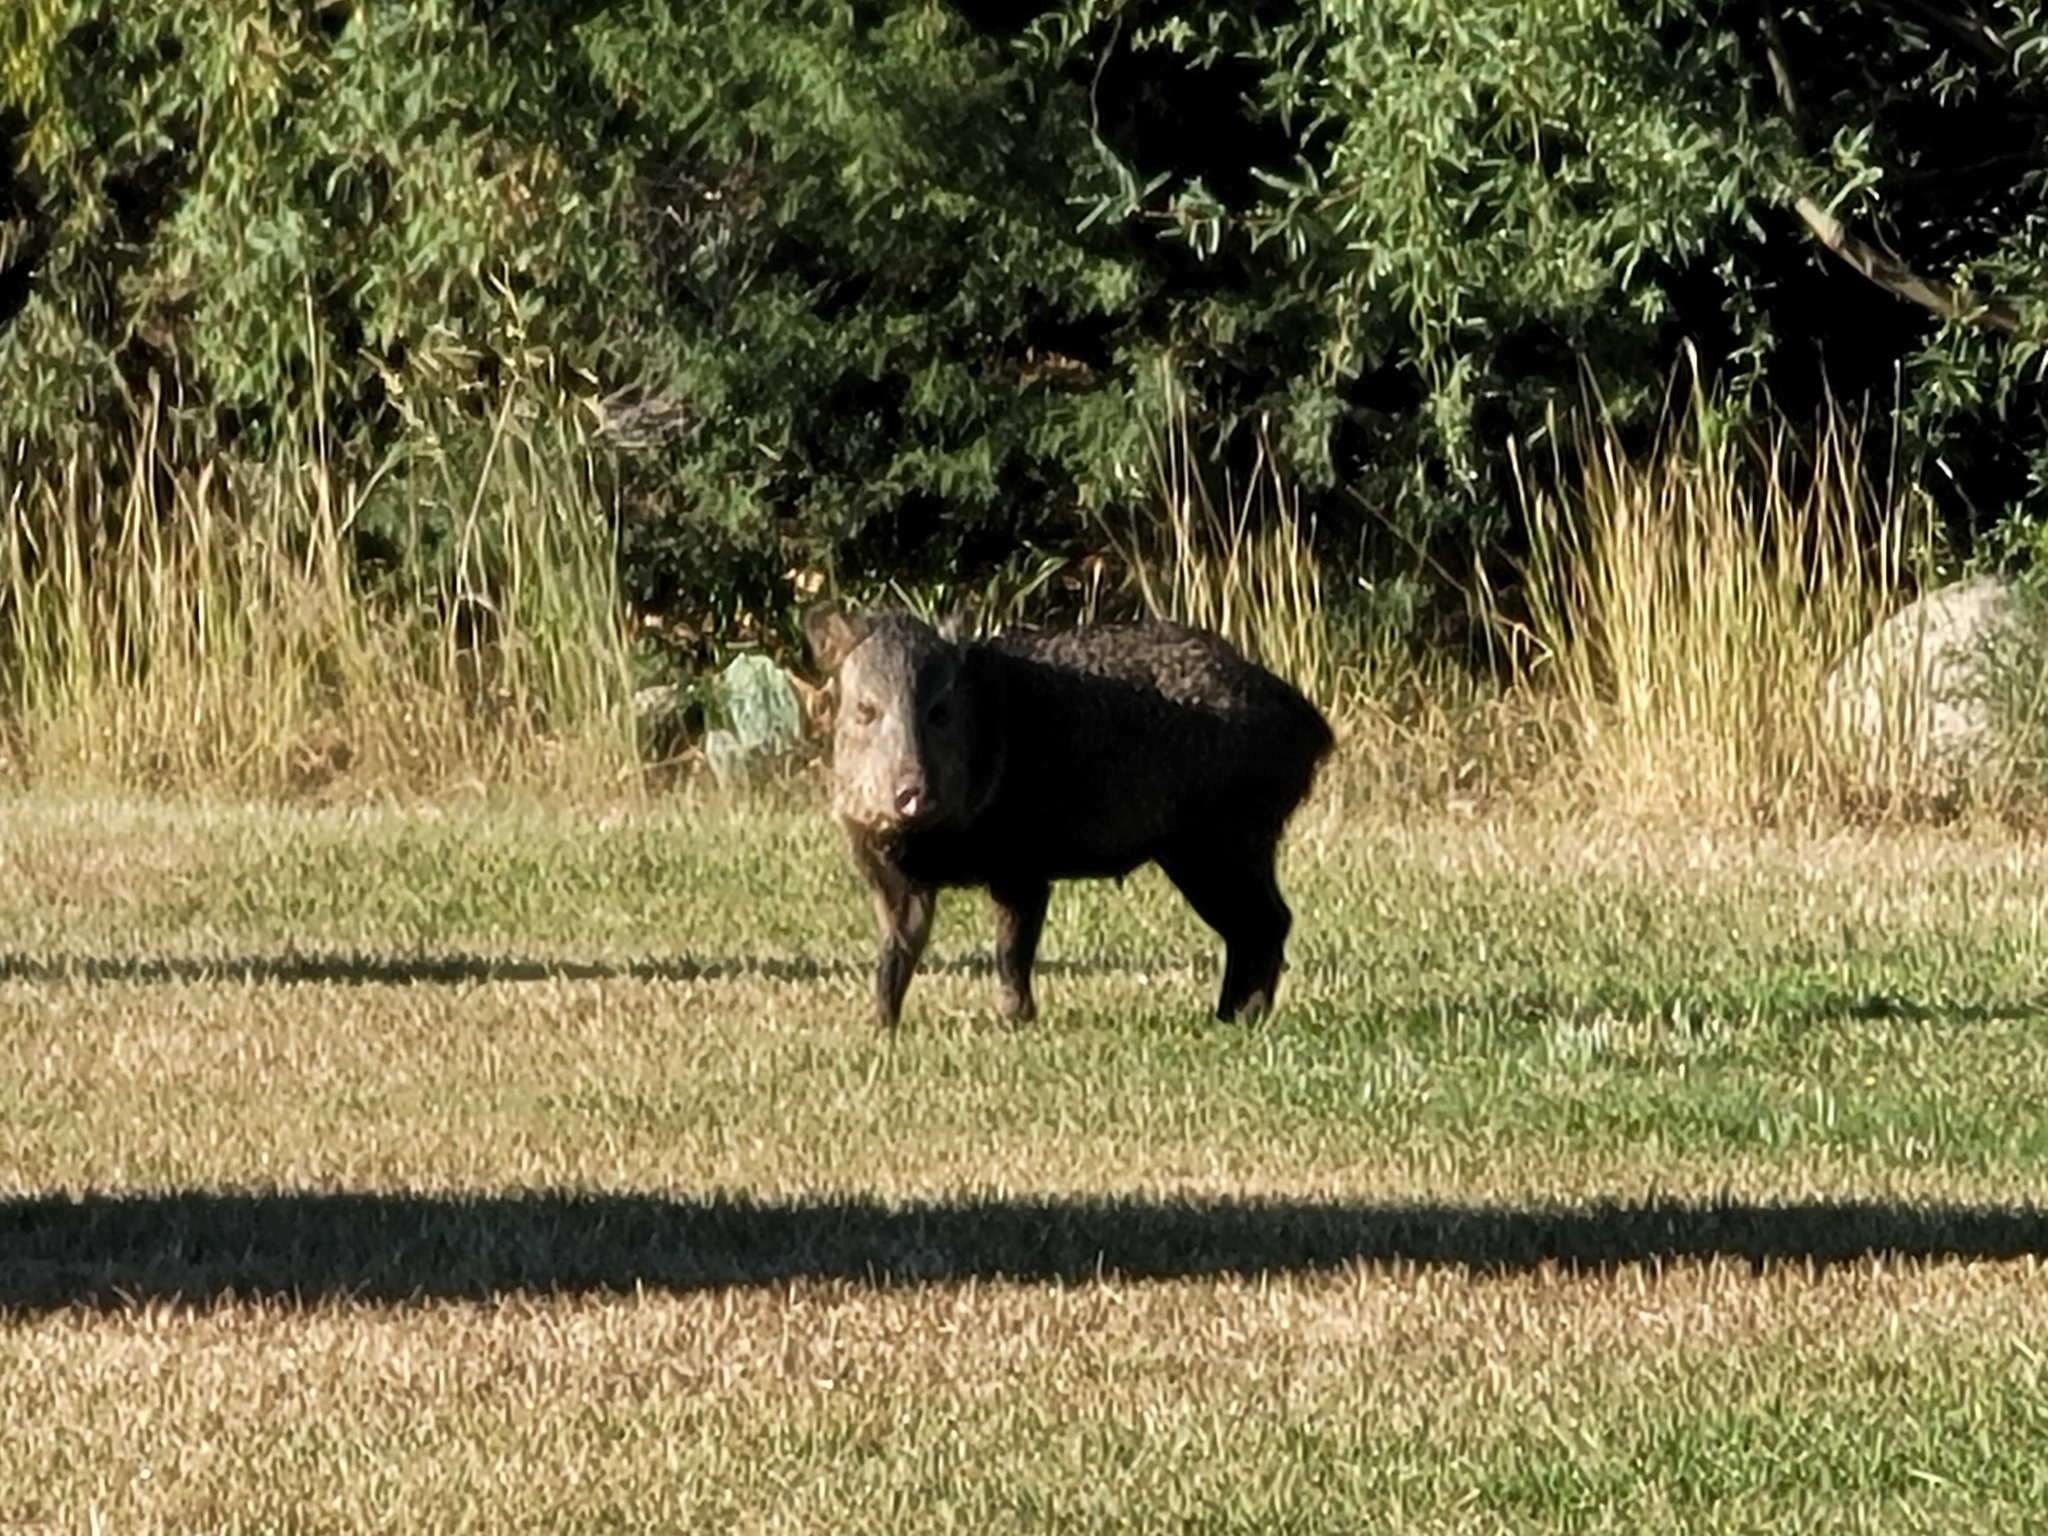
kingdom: Animalia
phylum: Chordata
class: Mammalia
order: Artiodactyla
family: Tayassuidae
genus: Pecari
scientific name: Pecari tajacu
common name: Collared peccary
